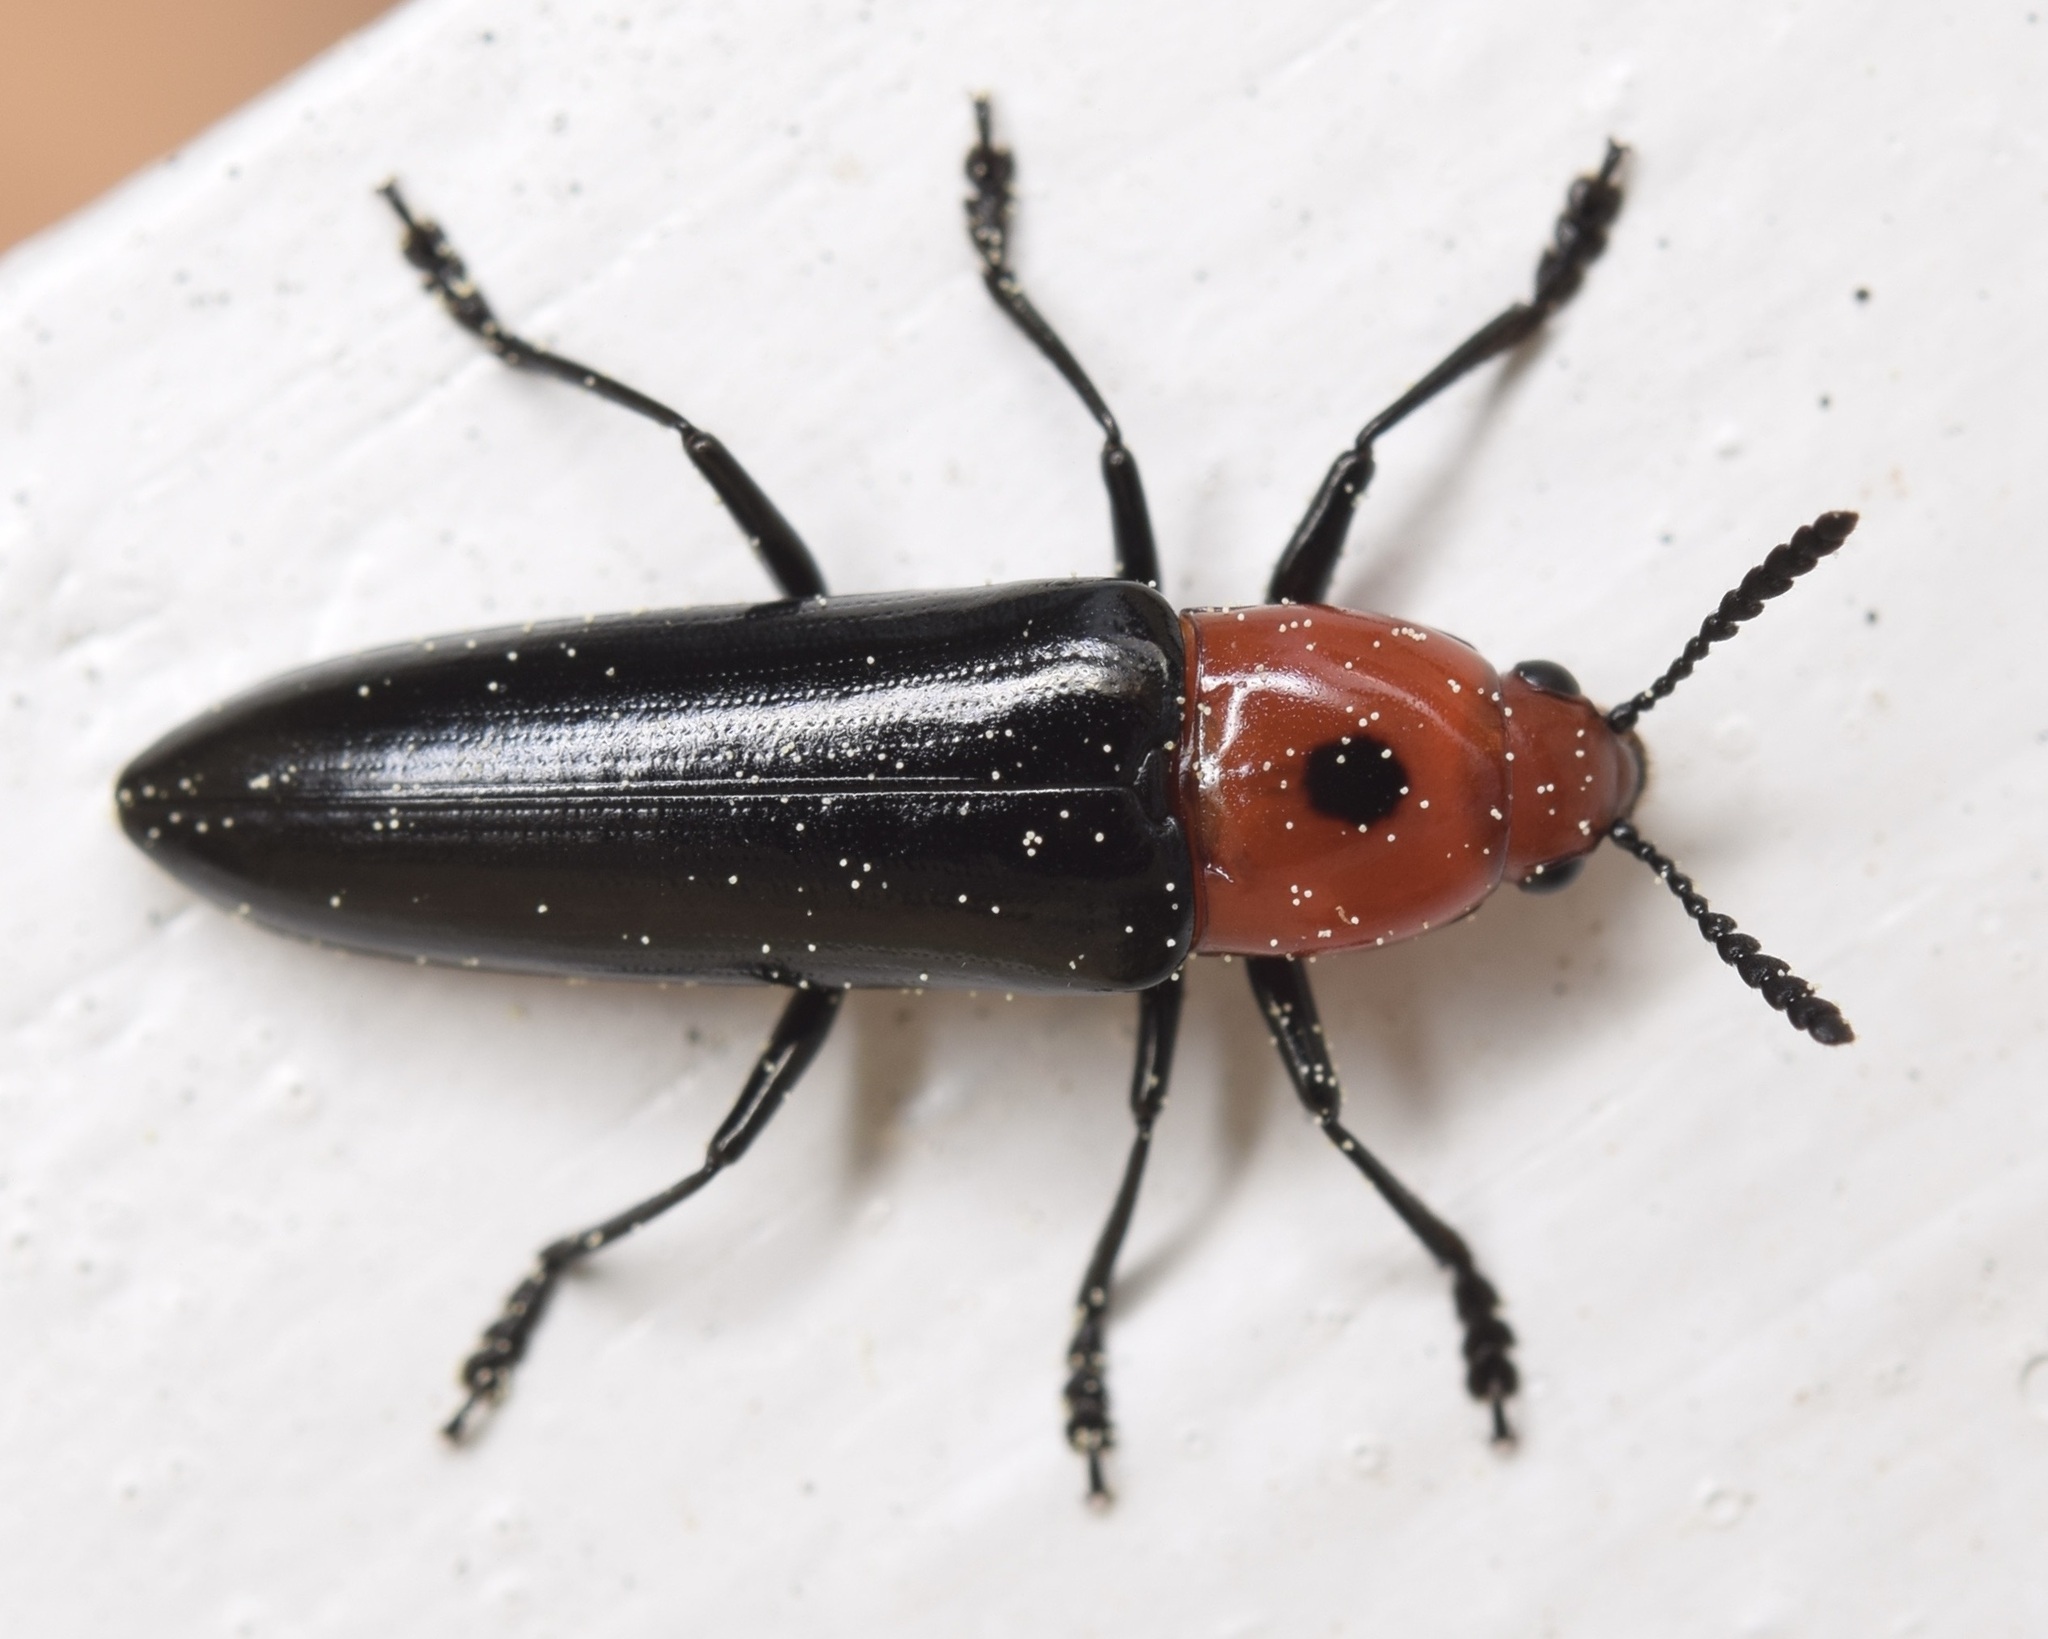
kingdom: Animalia
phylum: Arthropoda
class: Insecta
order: Coleoptera
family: Erotylidae
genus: Languria
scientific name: Languria bicolor
